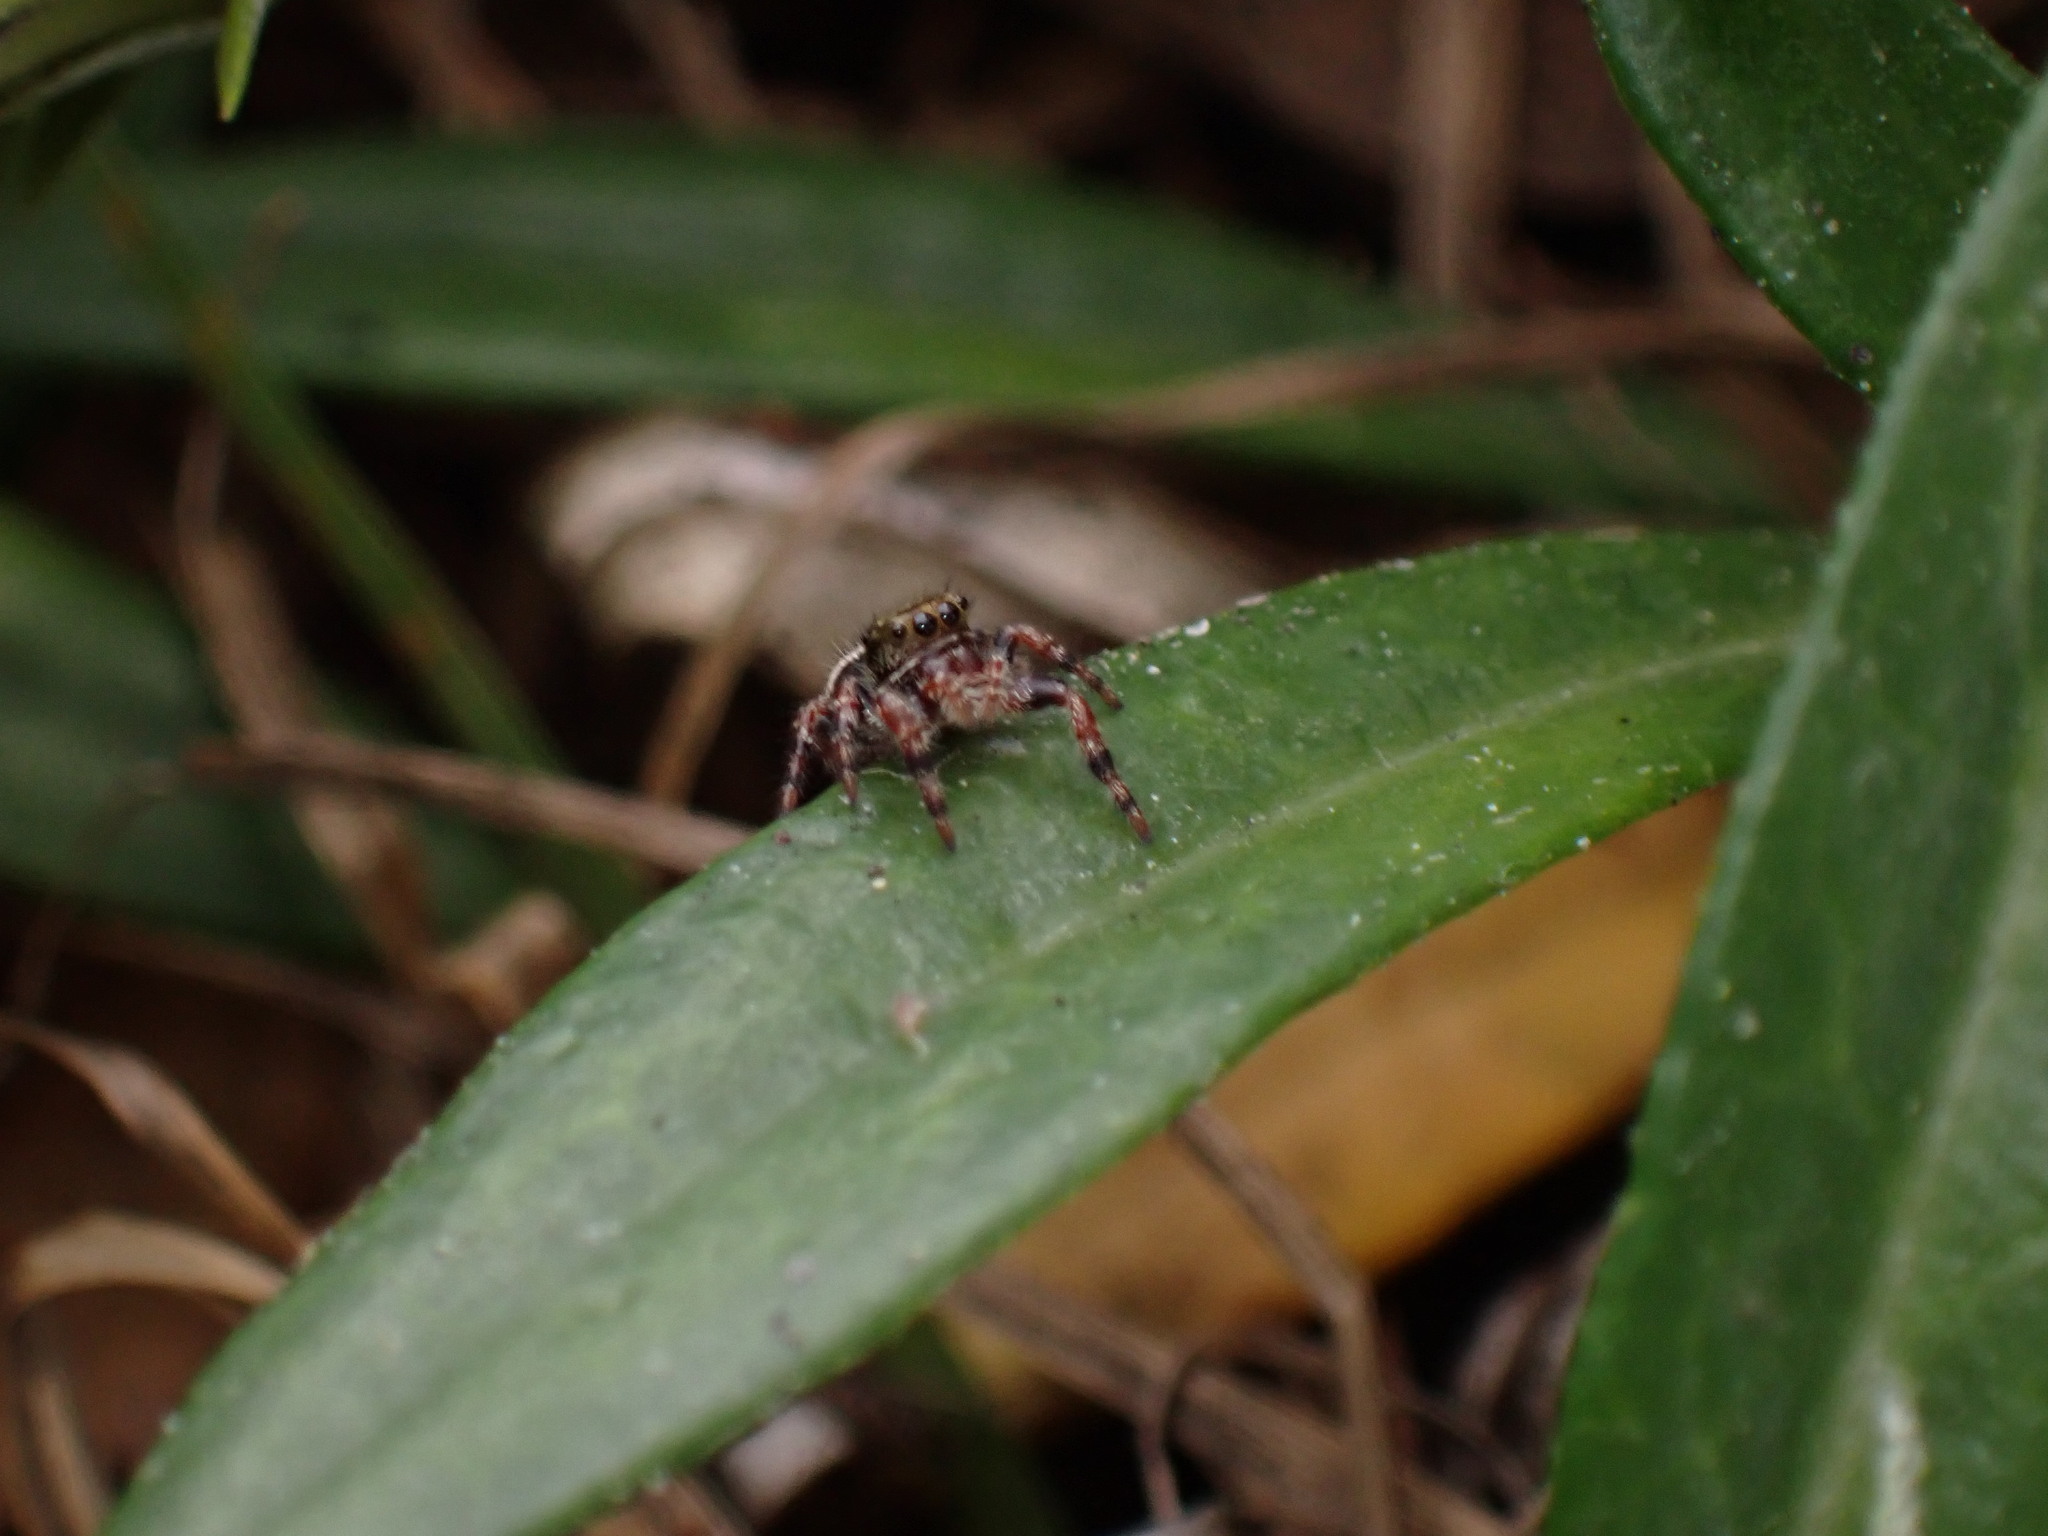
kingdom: Animalia
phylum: Arthropoda
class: Arachnida
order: Araneae
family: Salticidae
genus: Phidippus
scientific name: Phidippus audax
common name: Bold jumper
